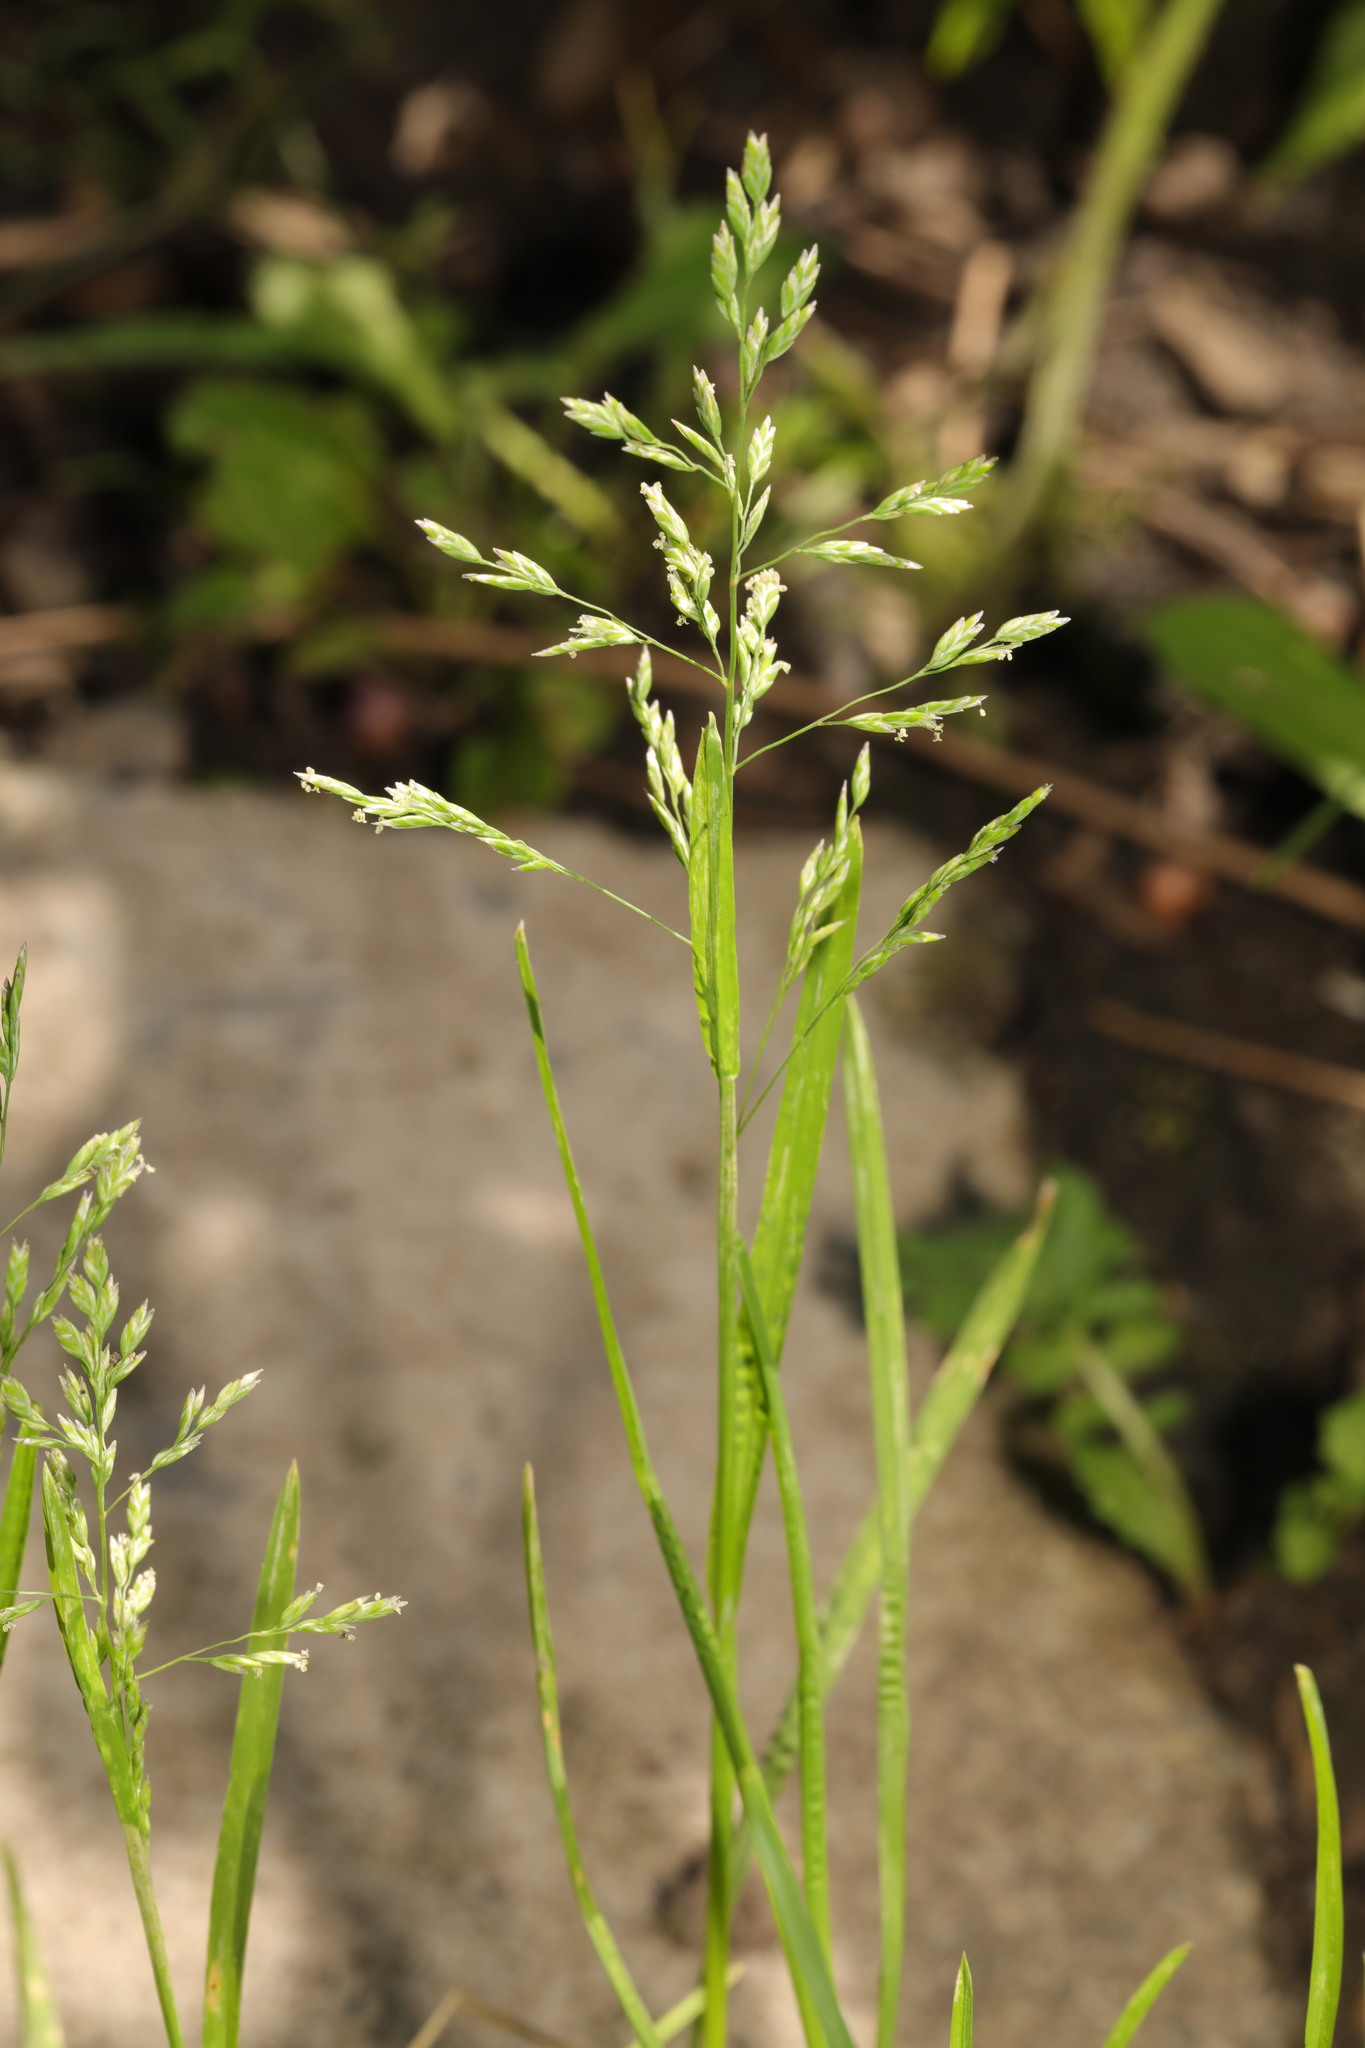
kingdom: Plantae
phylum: Tracheophyta
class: Liliopsida
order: Poales
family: Poaceae
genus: Poa
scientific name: Poa annua
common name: Annual bluegrass
